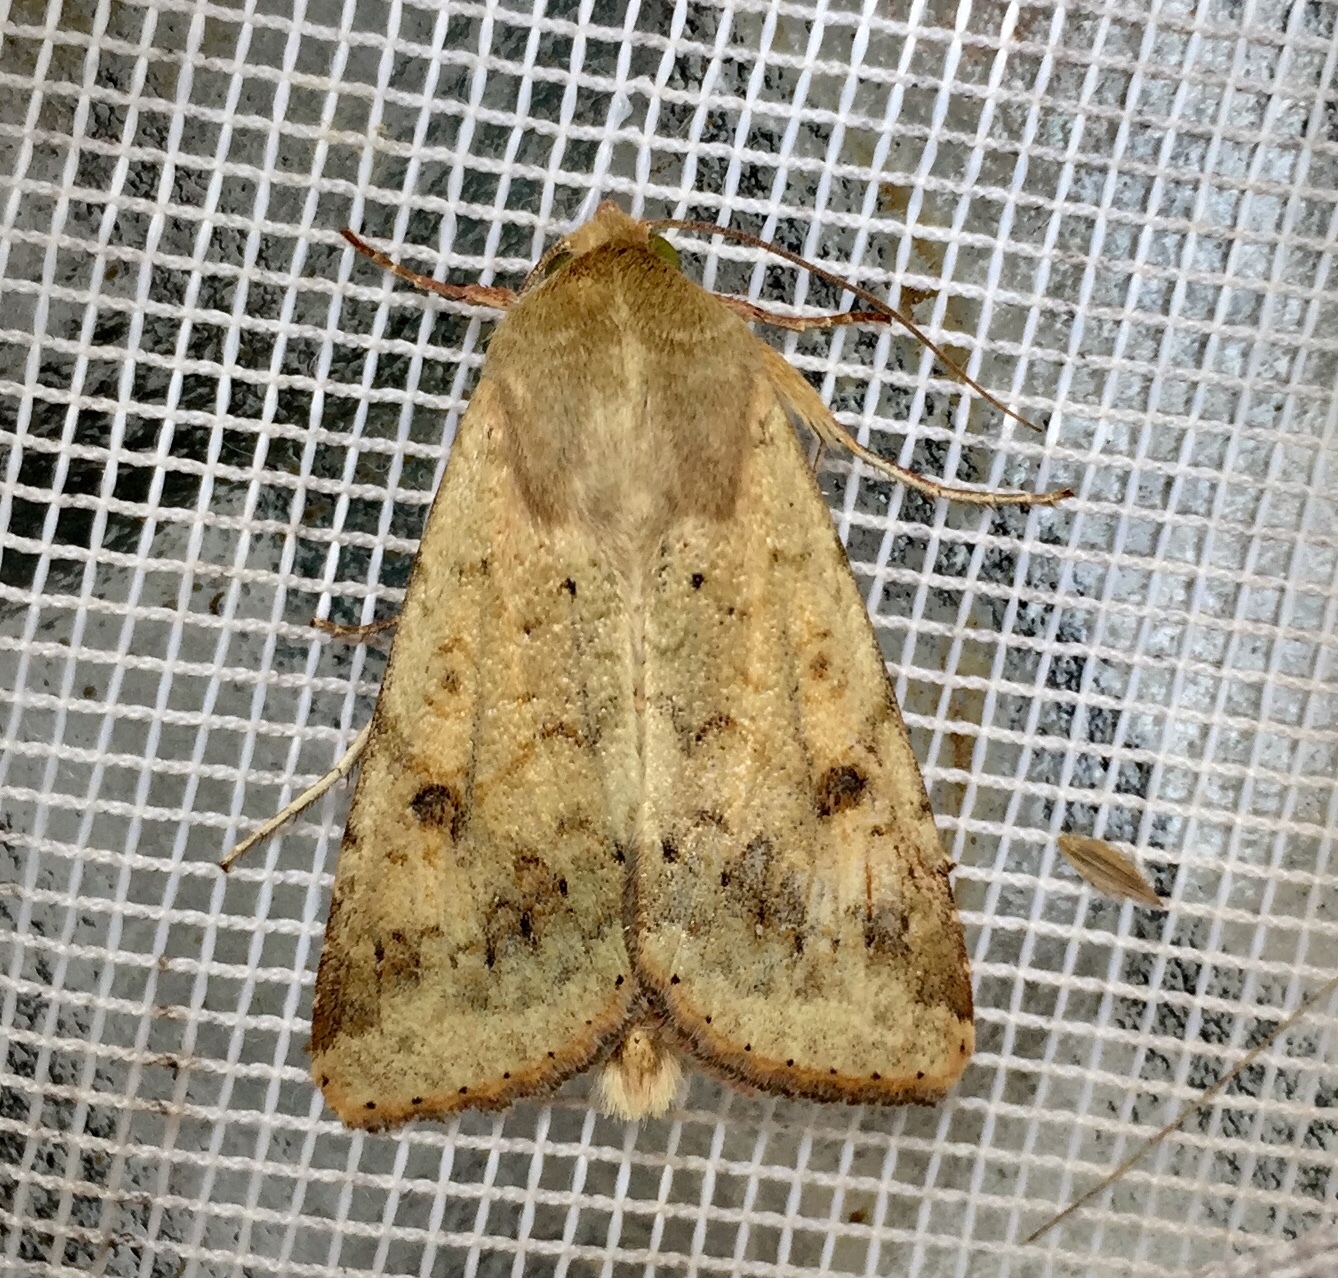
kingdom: Animalia
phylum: Arthropoda
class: Insecta
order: Lepidoptera
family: Noctuidae
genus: Helicoverpa
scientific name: Helicoverpa zea
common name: Bollworm
